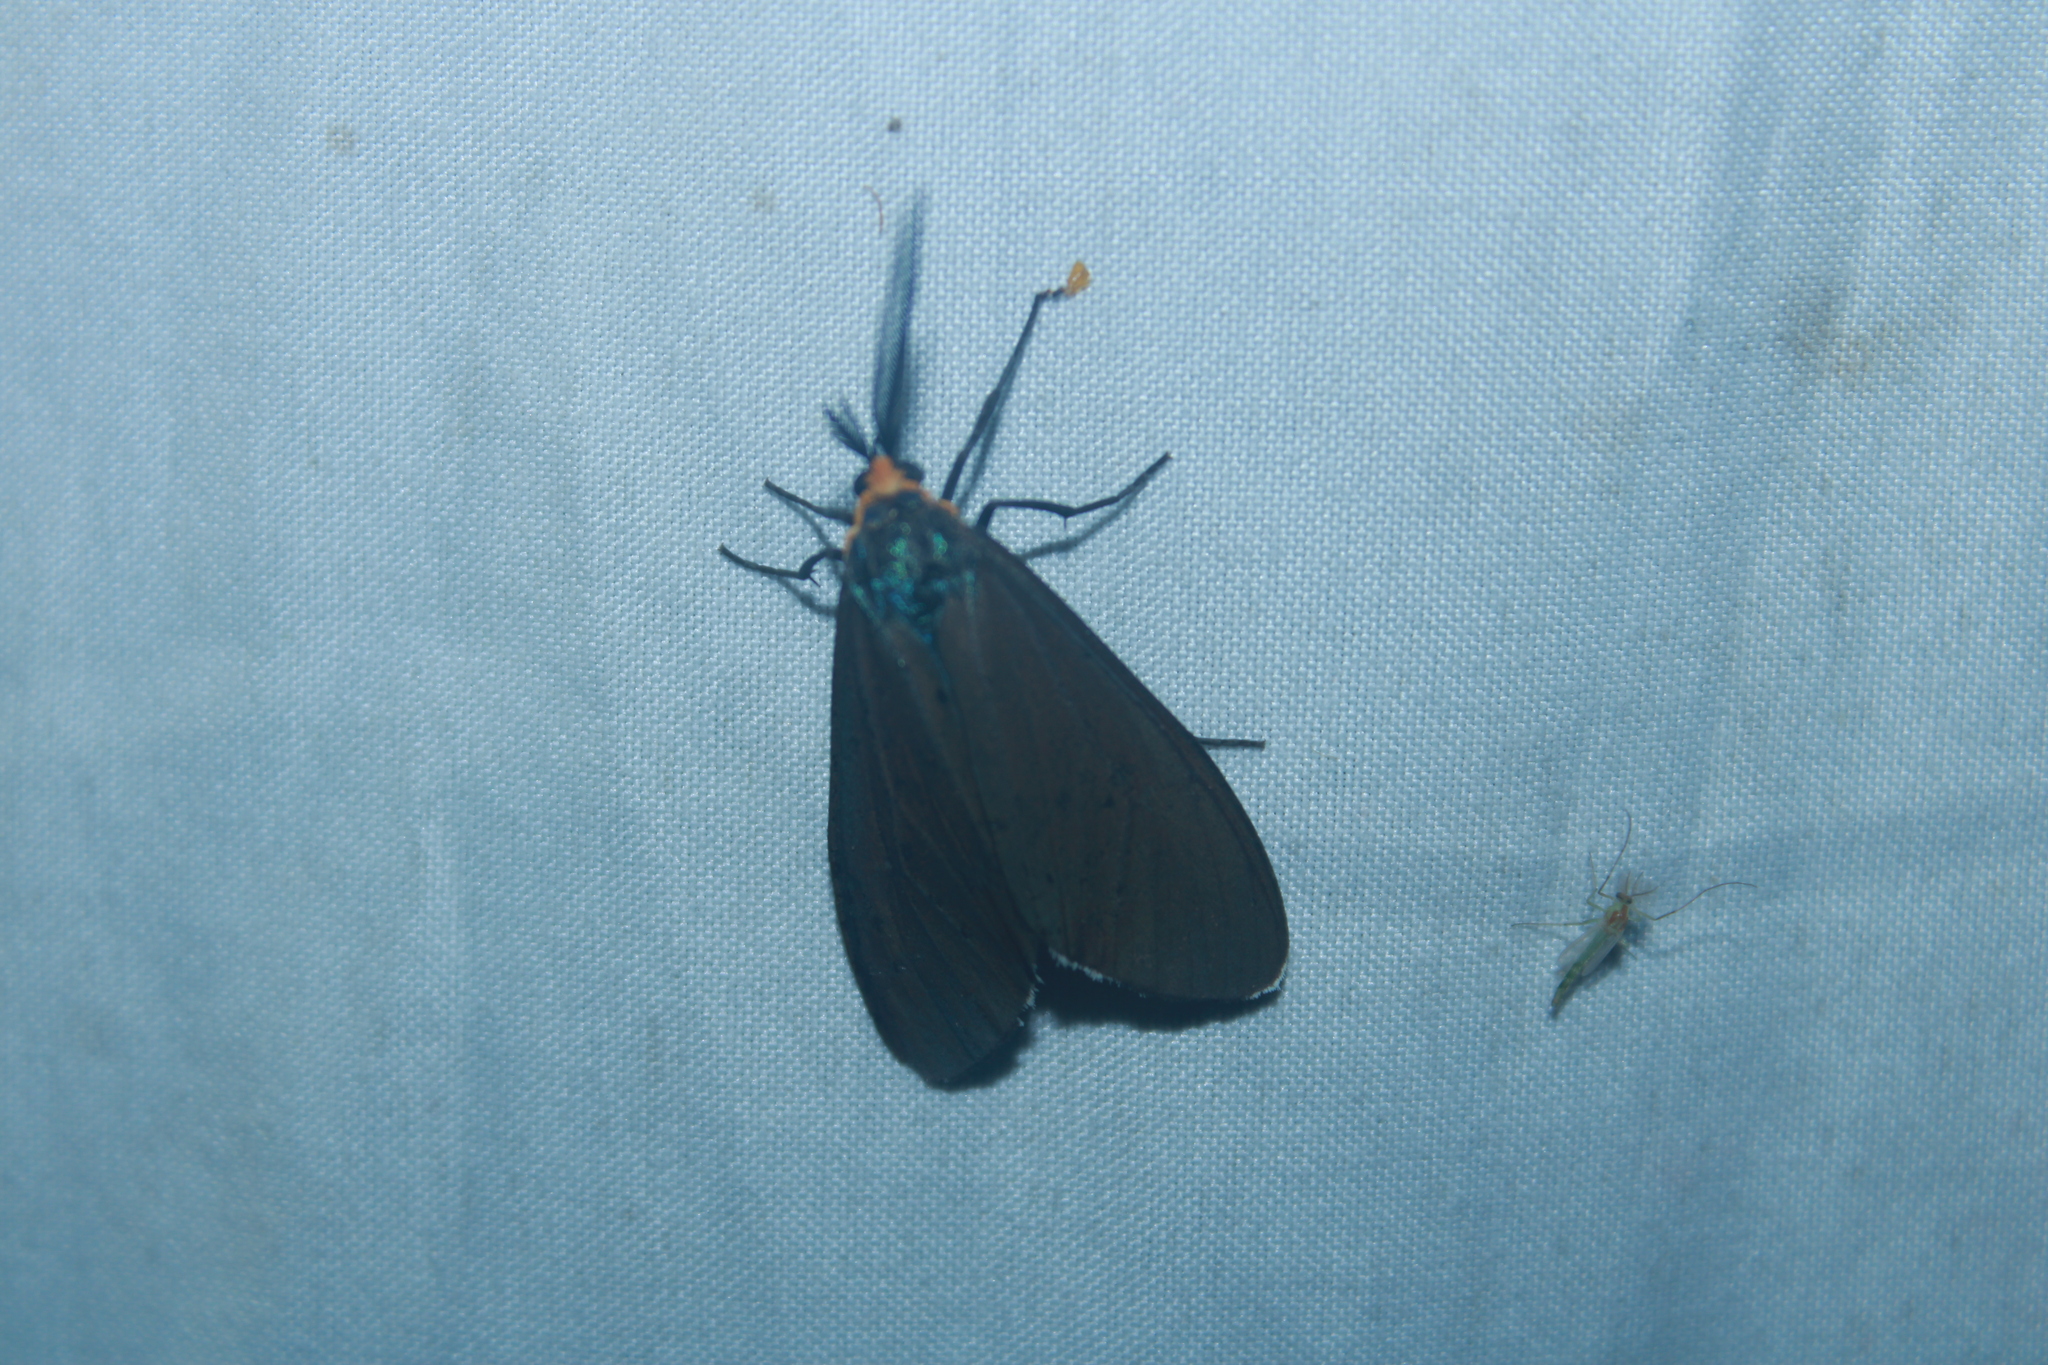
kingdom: Animalia
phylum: Arthropoda
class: Insecta
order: Lepidoptera
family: Erebidae
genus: Ctenucha
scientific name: Ctenucha virginica
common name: Virginia ctenucha moth
